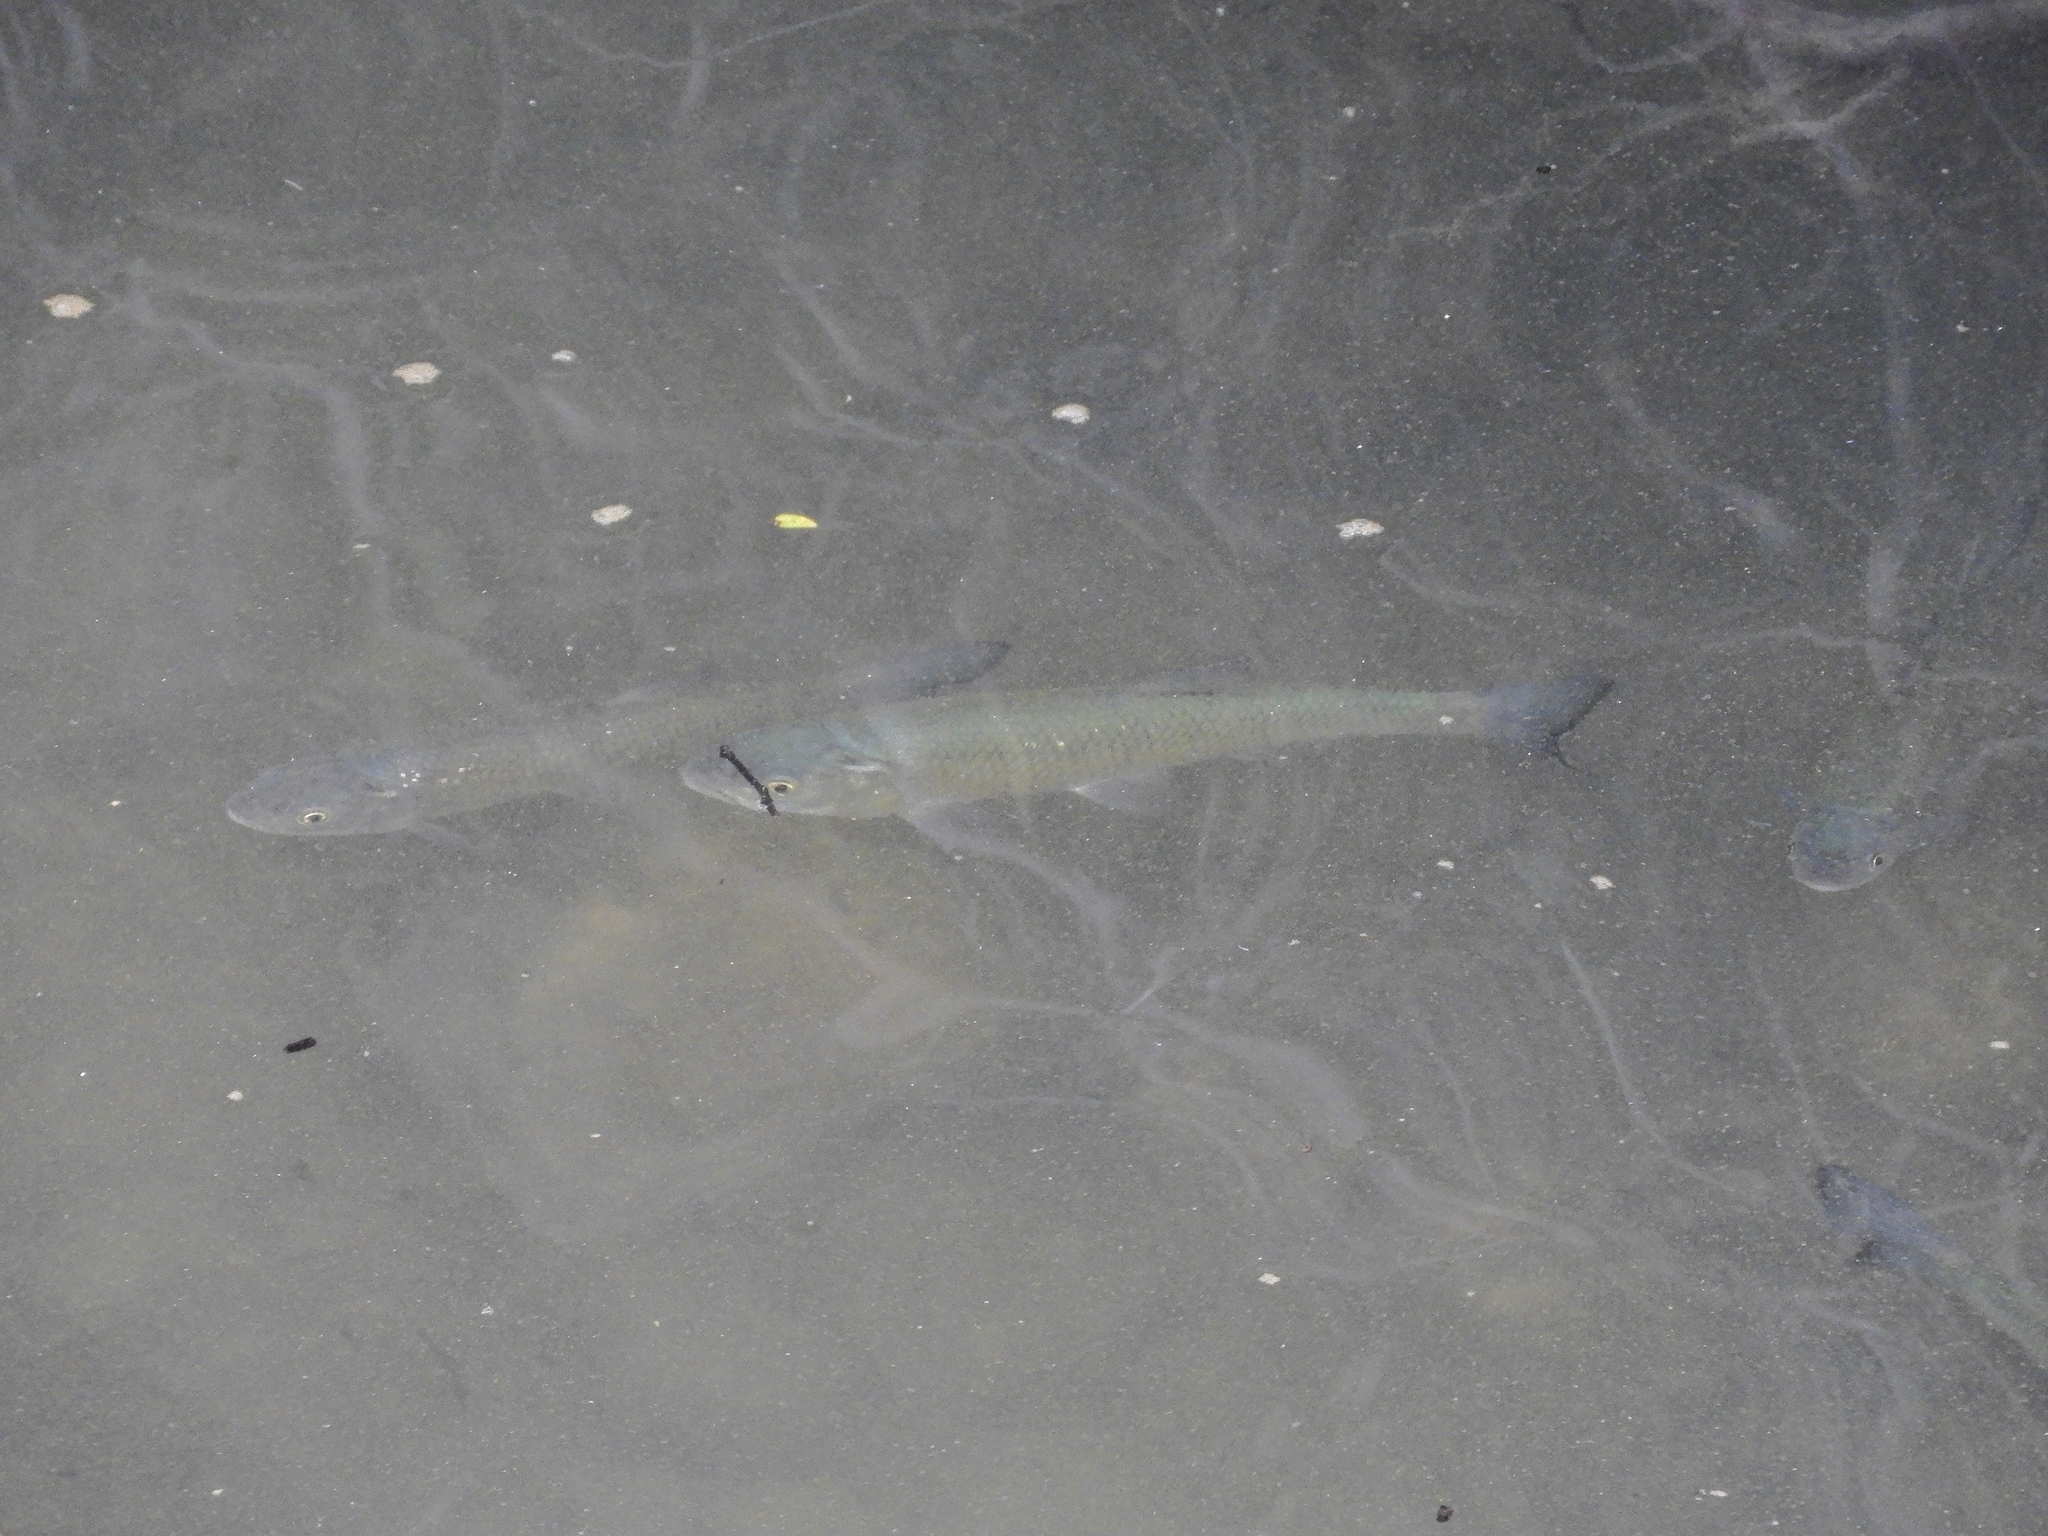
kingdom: Animalia
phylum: Chordata
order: Cypriniformes
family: Cyprinidae
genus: Squalius
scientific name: Squalius squalus
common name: Italian chub
